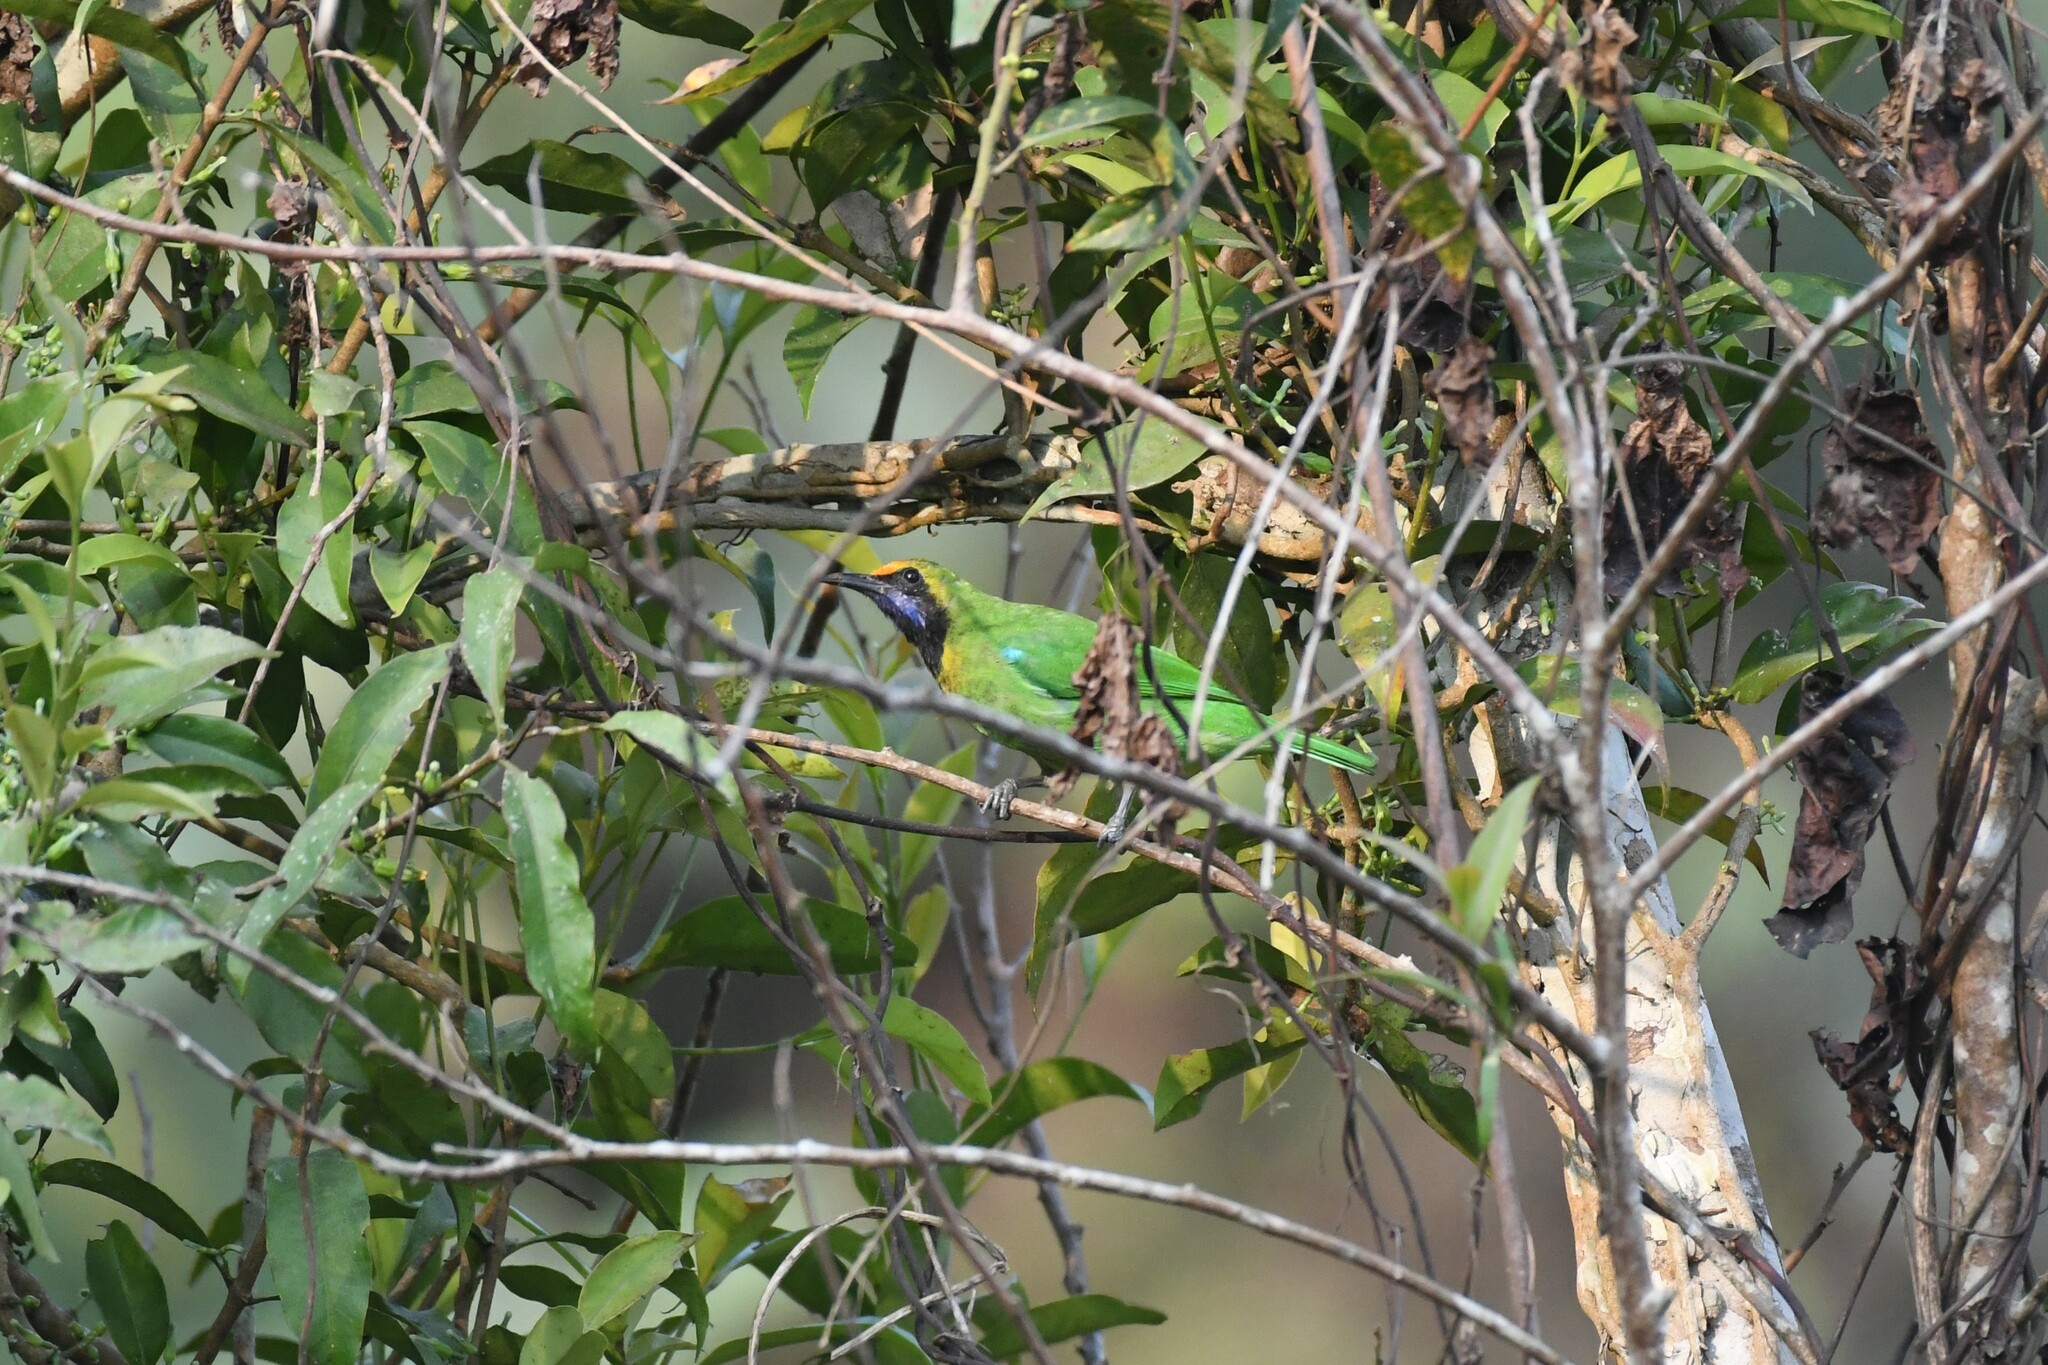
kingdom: Animalia
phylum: Chordata
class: Aves
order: Passeriformes
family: Chloropseidae
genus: Chloropsis
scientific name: Chloropsis aurifrons
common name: Golden-fronted leafbird
